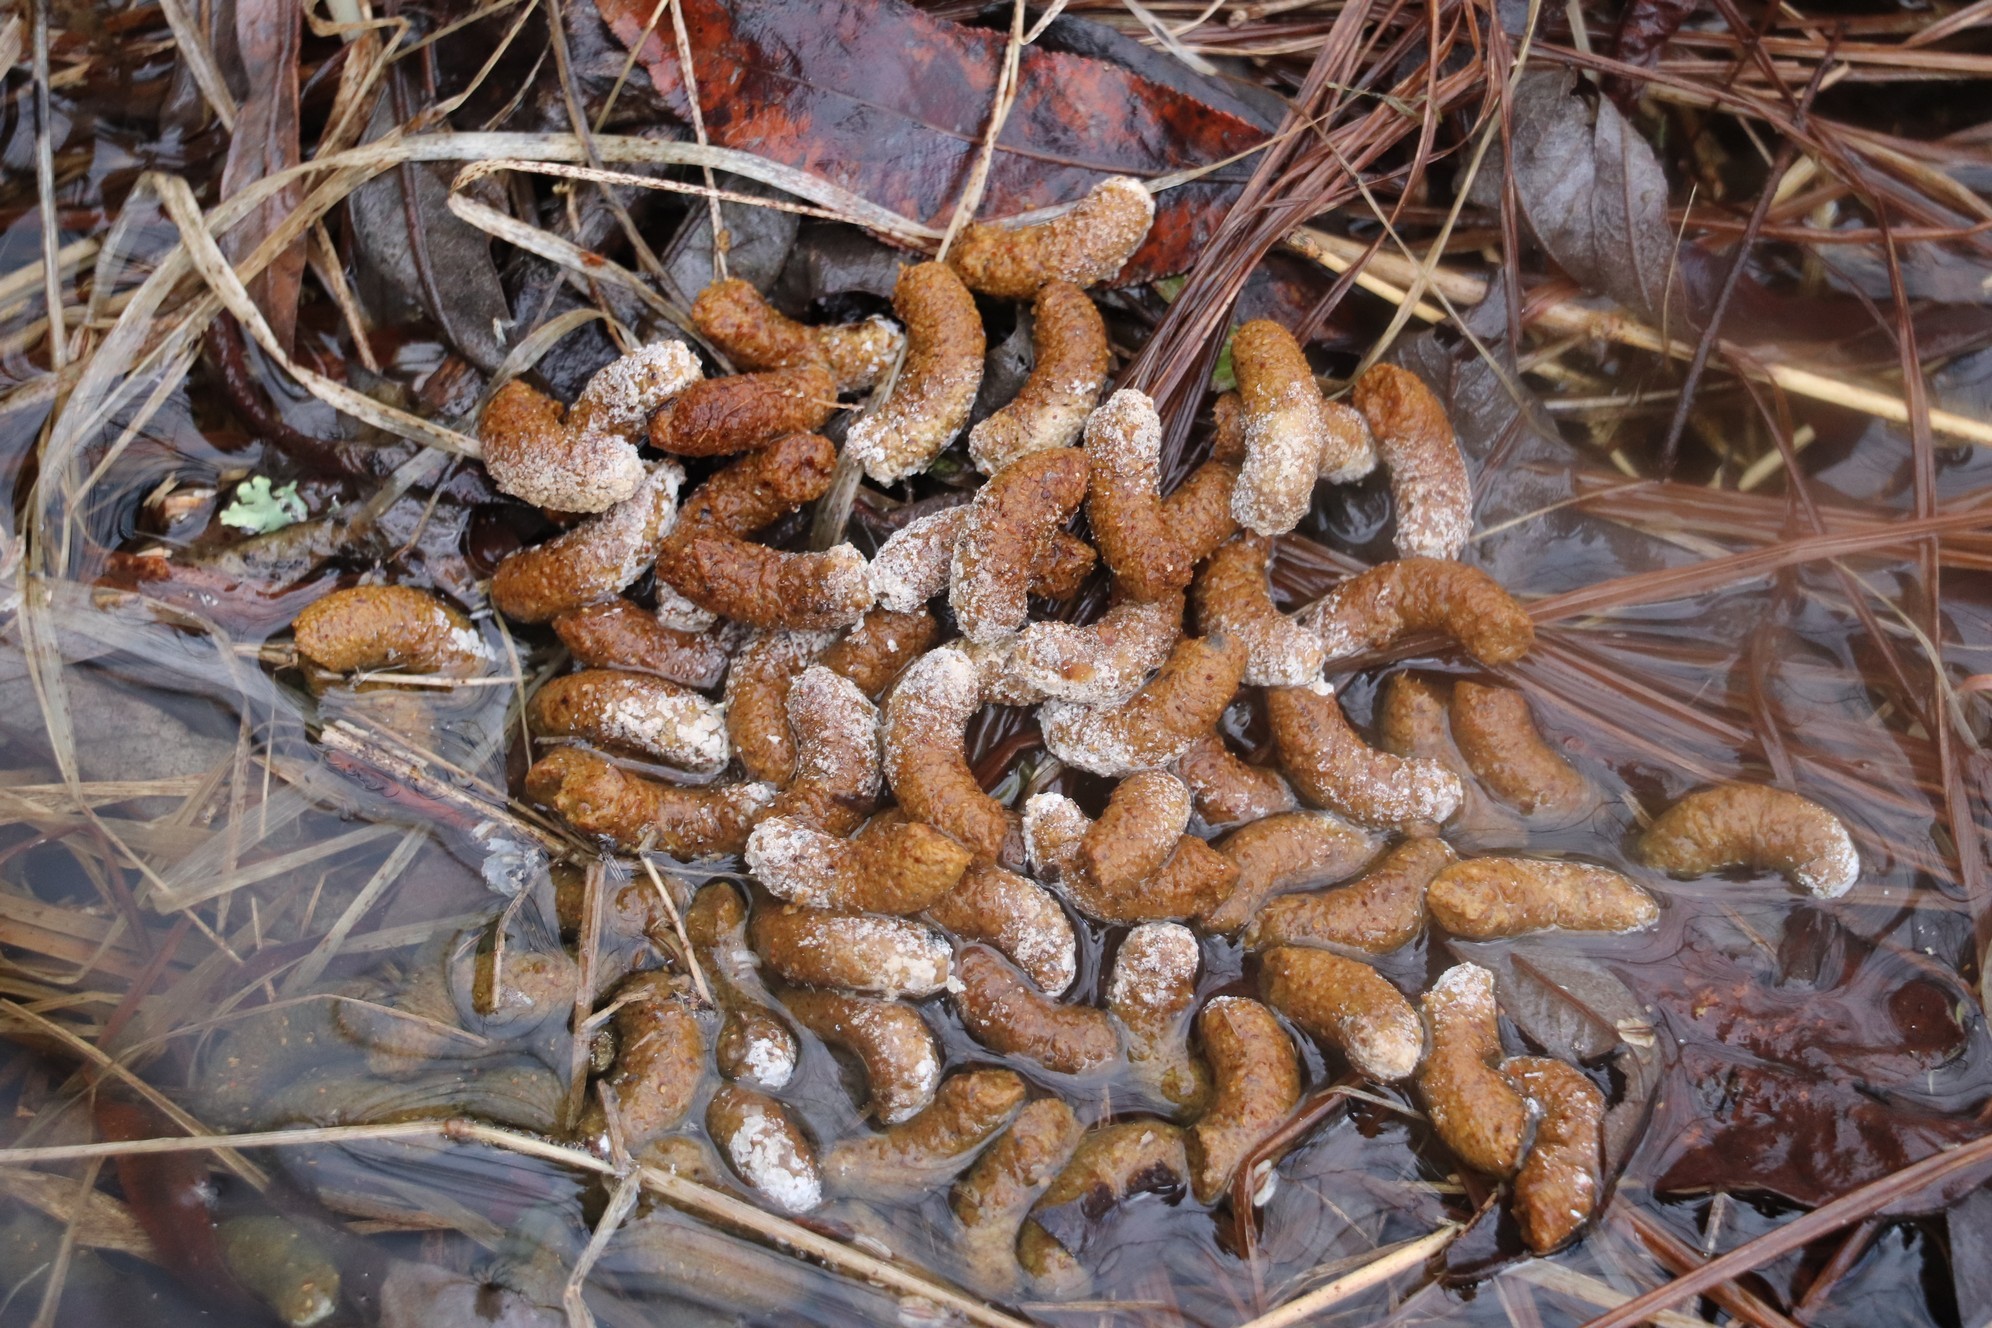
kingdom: Animalia
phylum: Chordata
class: Aves
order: Galliformes
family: Phasianidae
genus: Tetrastes
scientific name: Tetrastes bonasia
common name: Hazel grouse
